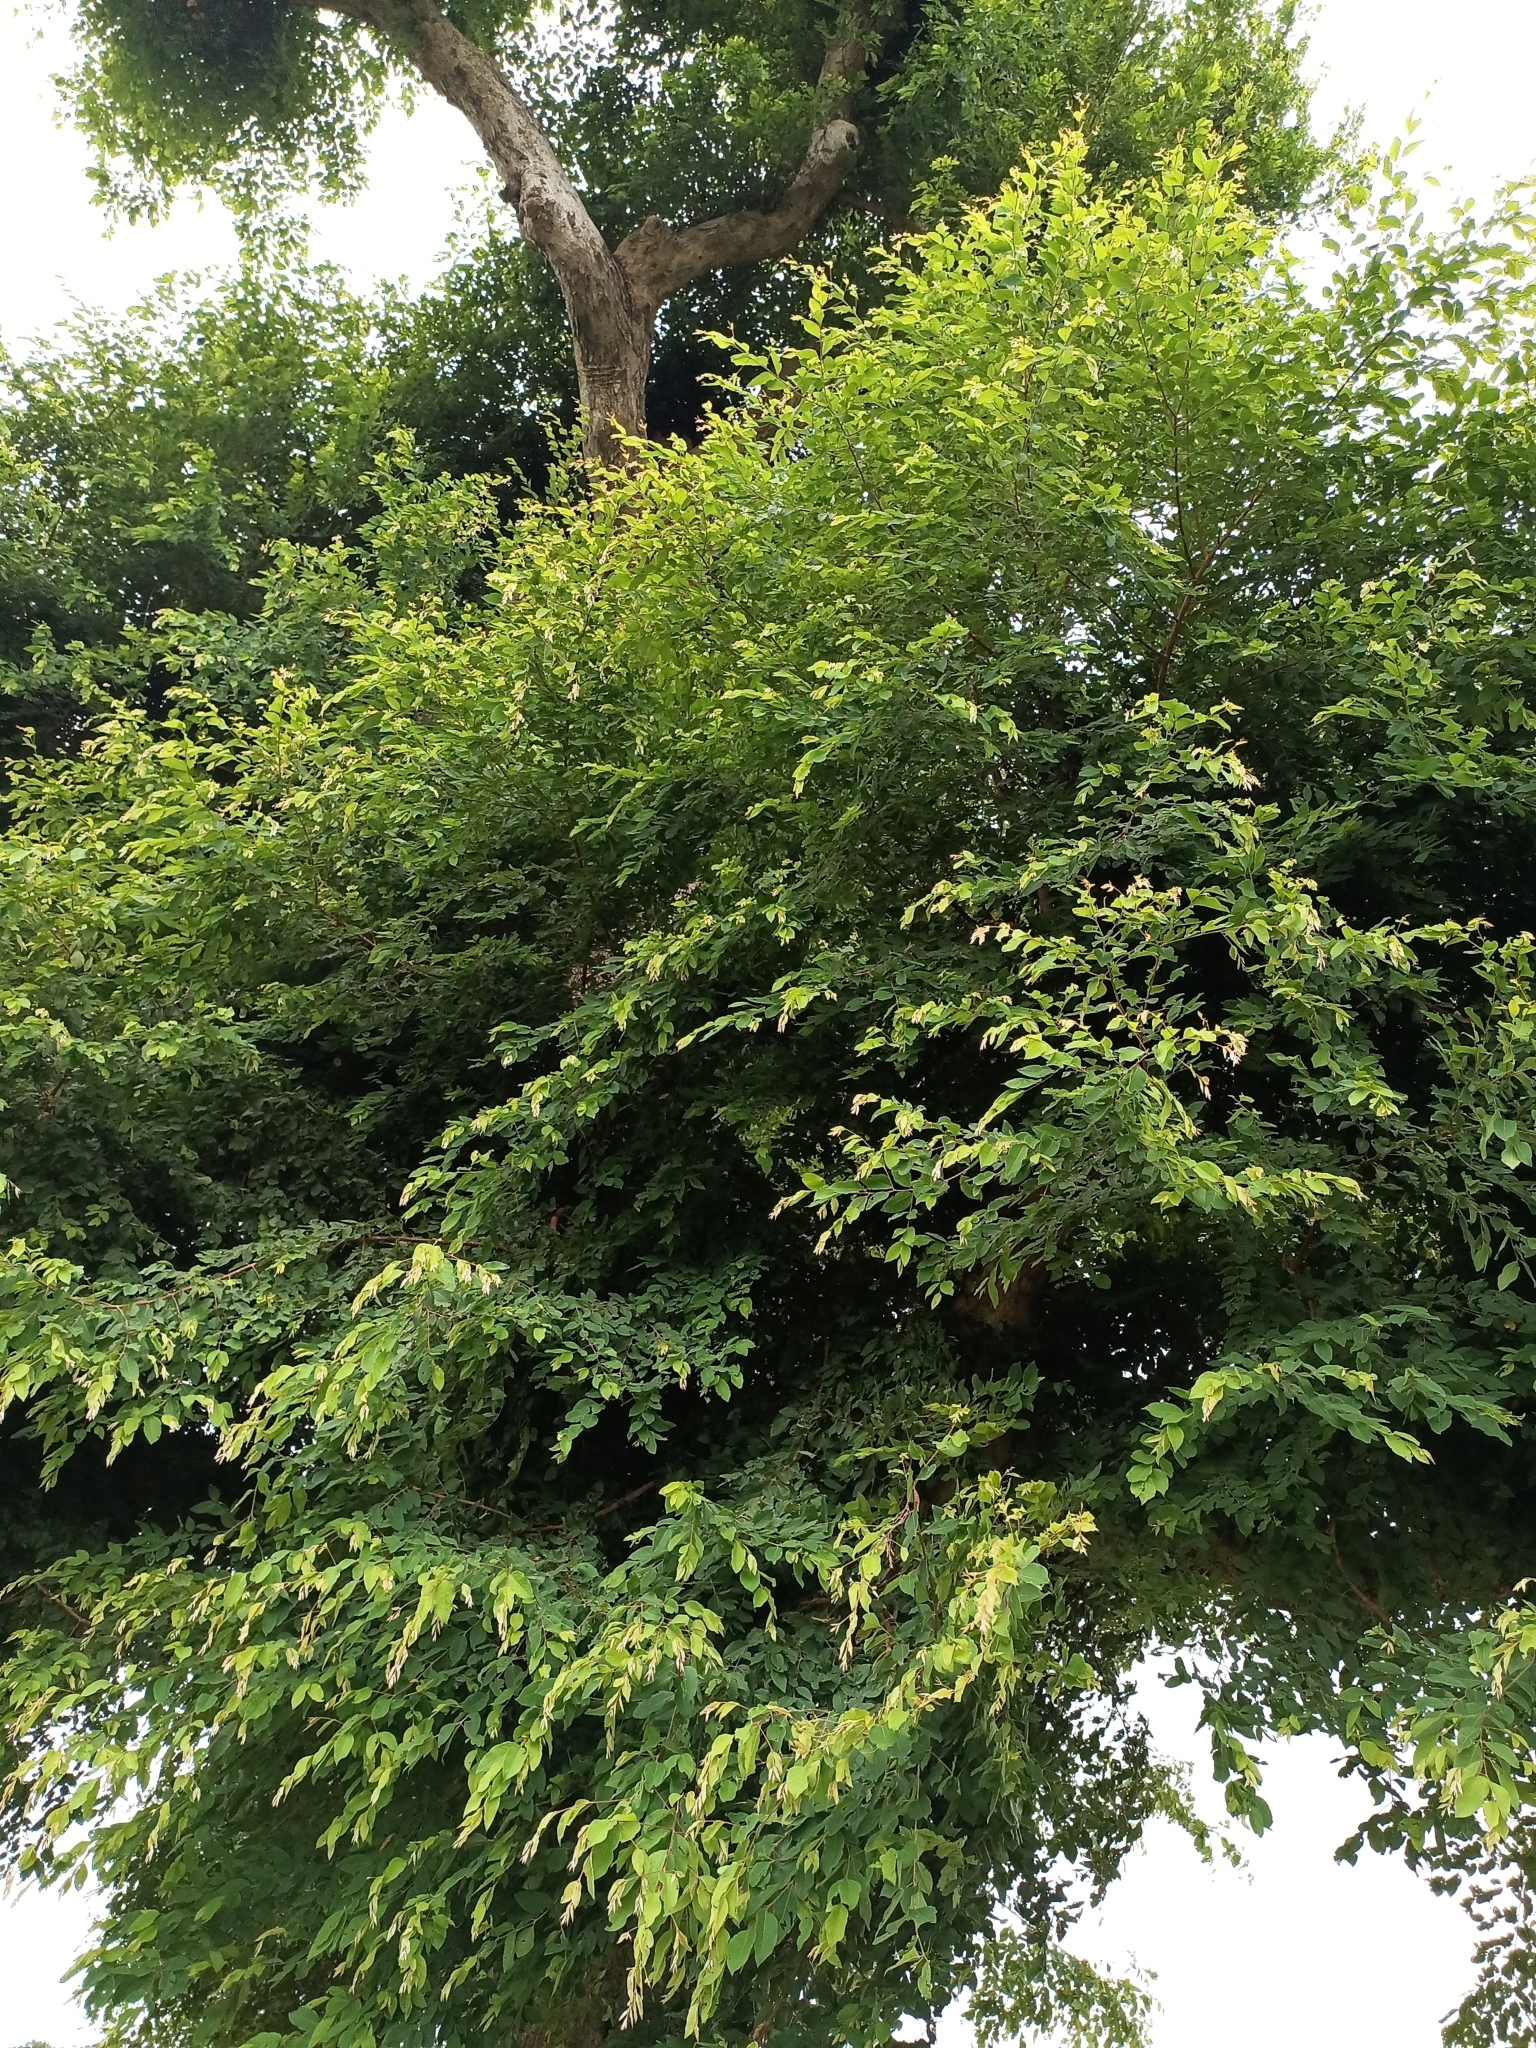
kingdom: Plantae
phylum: Tracheophyta
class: Magnoliopsida
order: Myrtales
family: Combretaceae
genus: Terminalia
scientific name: Terminalia leiocarpa
